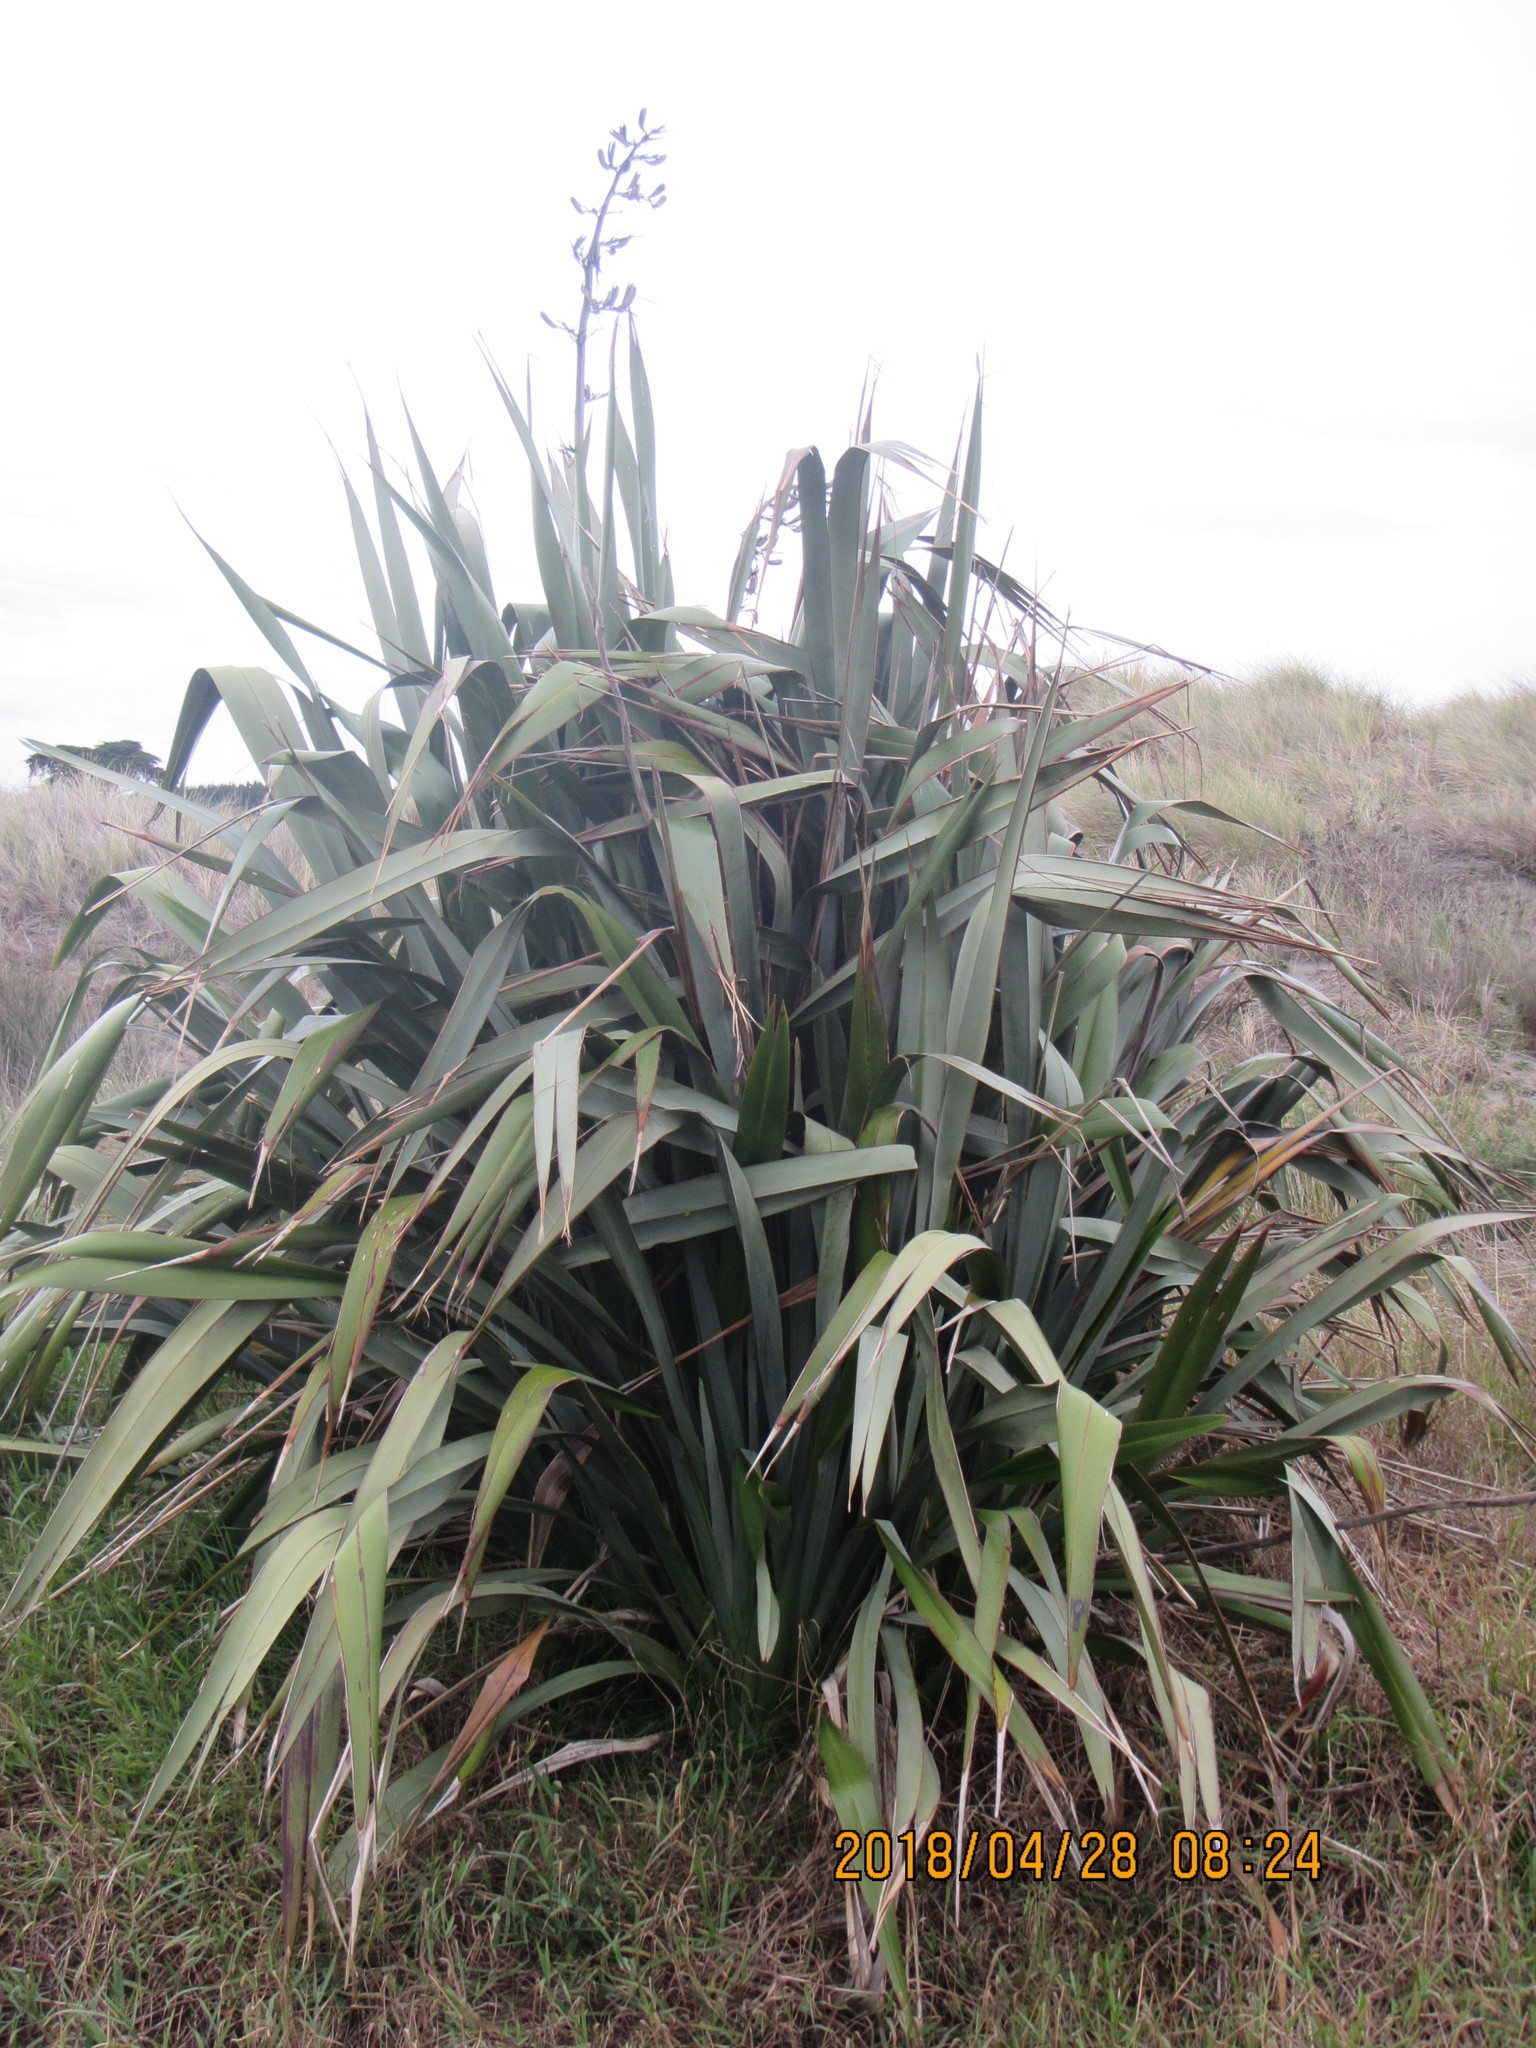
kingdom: Plantae
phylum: Tracheophyta
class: Liliopsida
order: Asparagales
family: Asphodelaceae
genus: Phormium
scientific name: Phormium tenax
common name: New zealand flax
